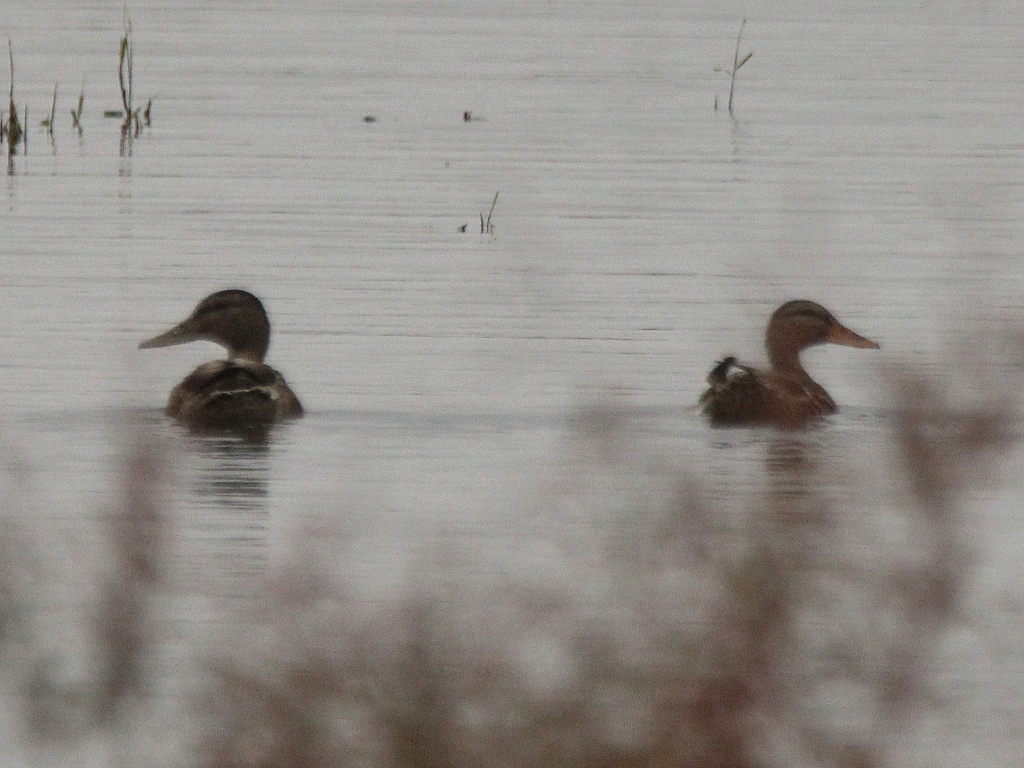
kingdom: Animalia
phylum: Chordata
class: Aves
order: Anseriformes
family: Anatidae
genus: Anas
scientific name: Anas platyrhynchos
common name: Mallard
